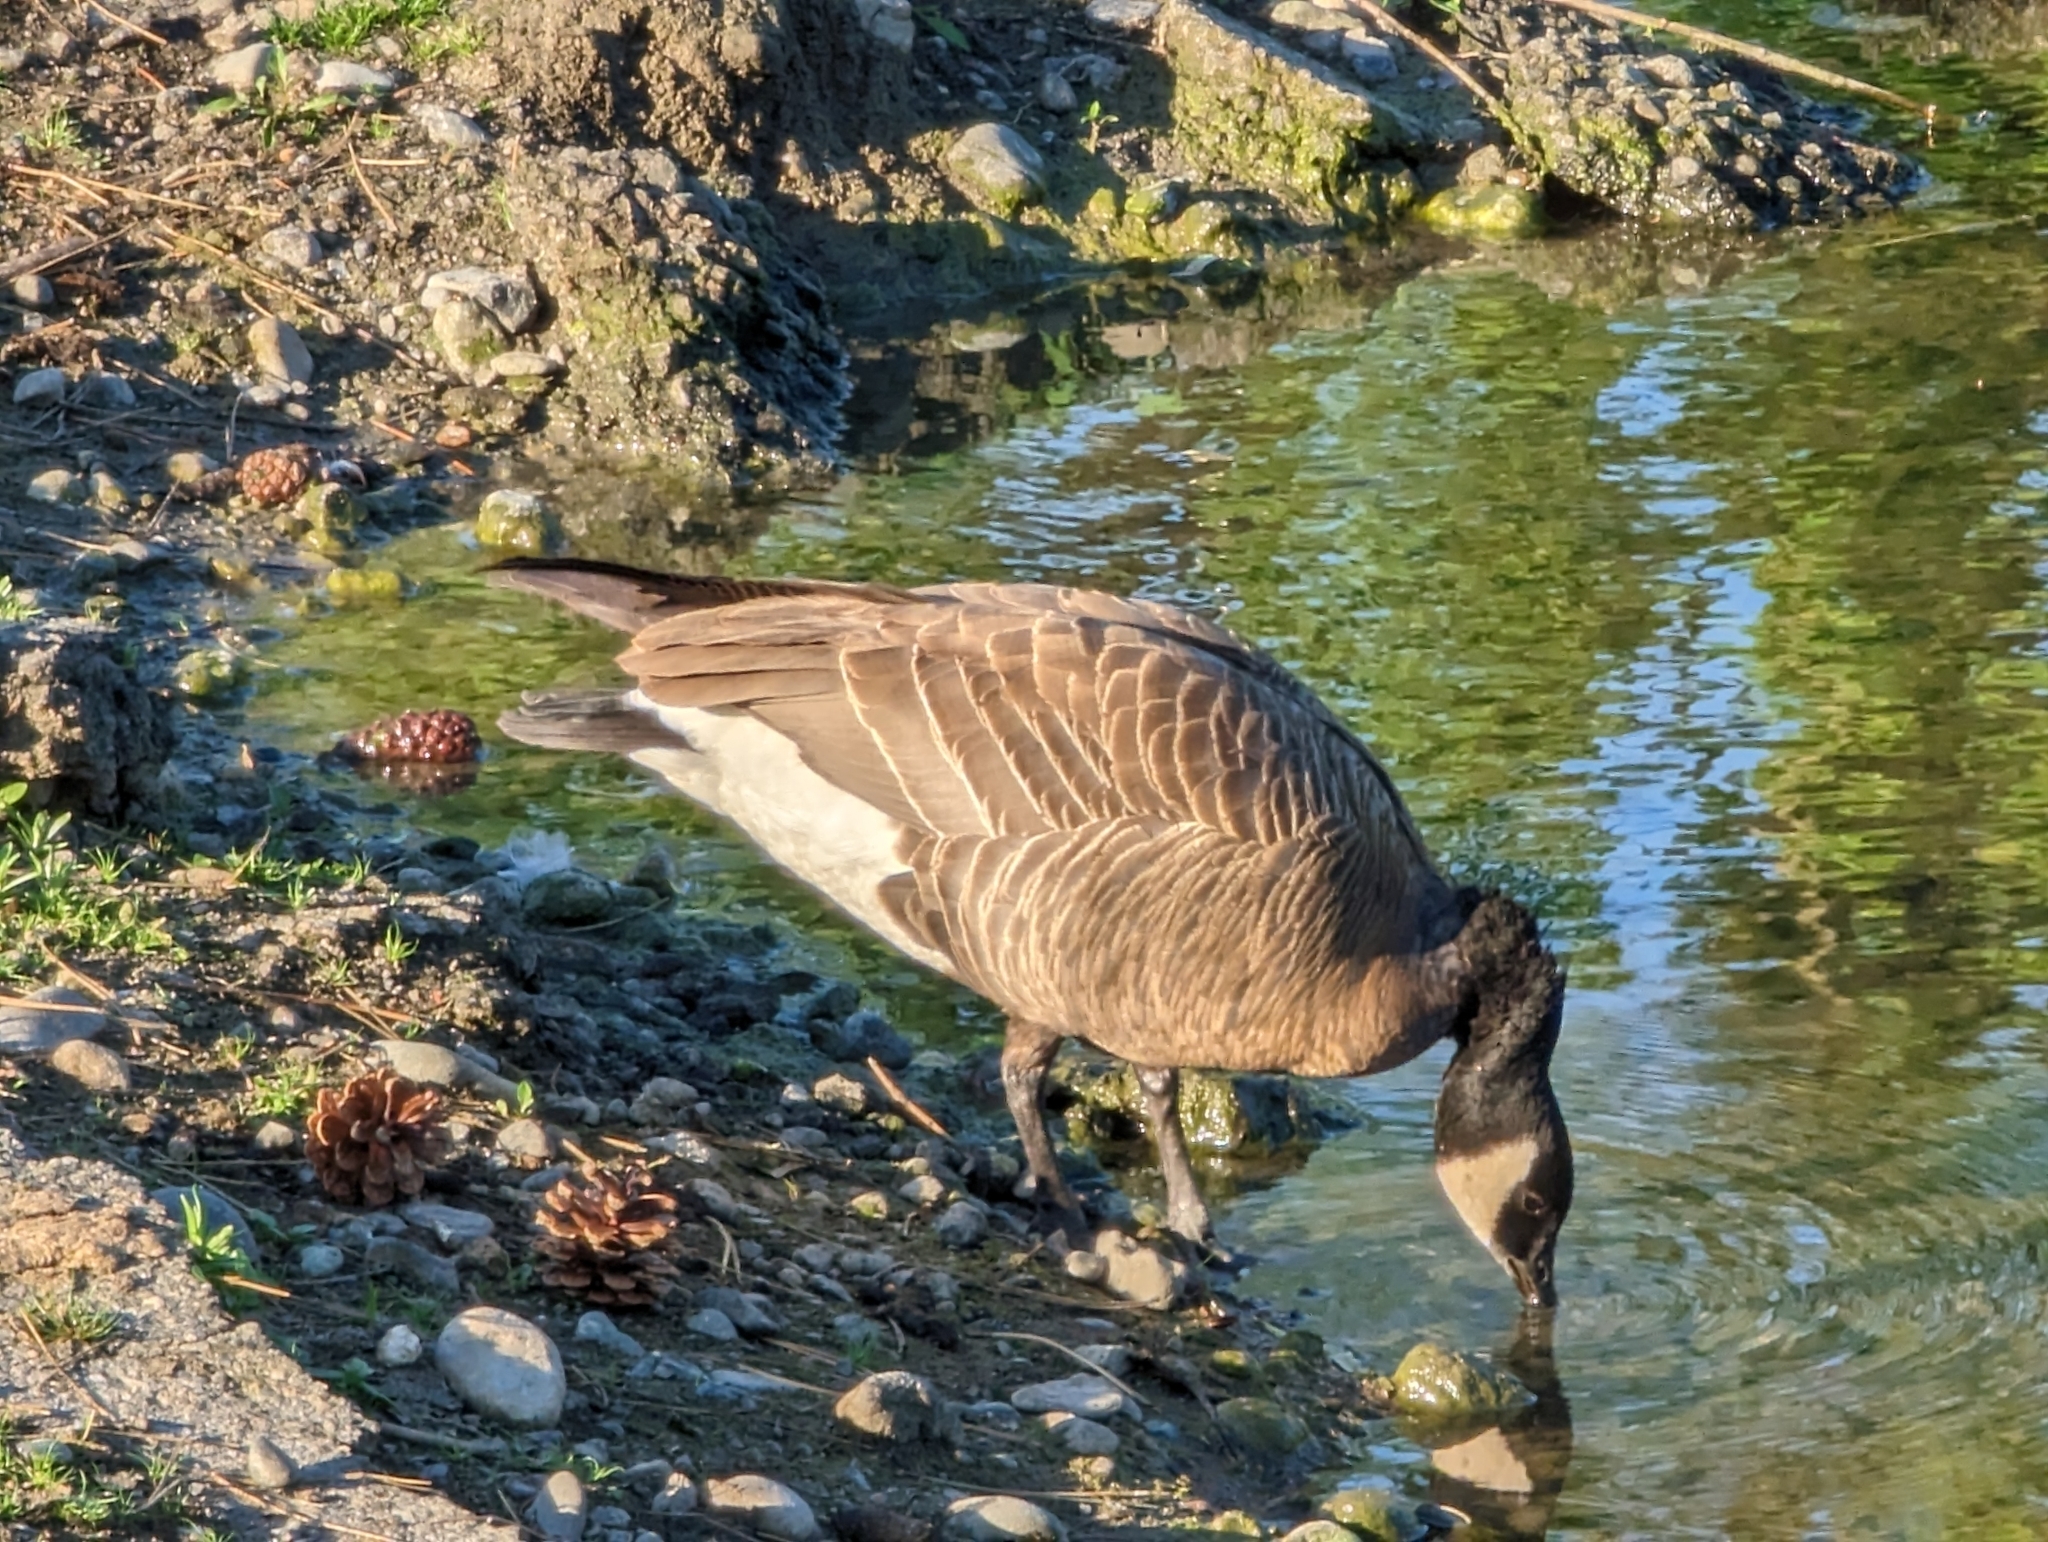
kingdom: Animalia
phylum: Chordata
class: Aves
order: Anseriformes
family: Anatidae
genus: Branta
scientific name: Branta hutchinsii
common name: Cackling goose
